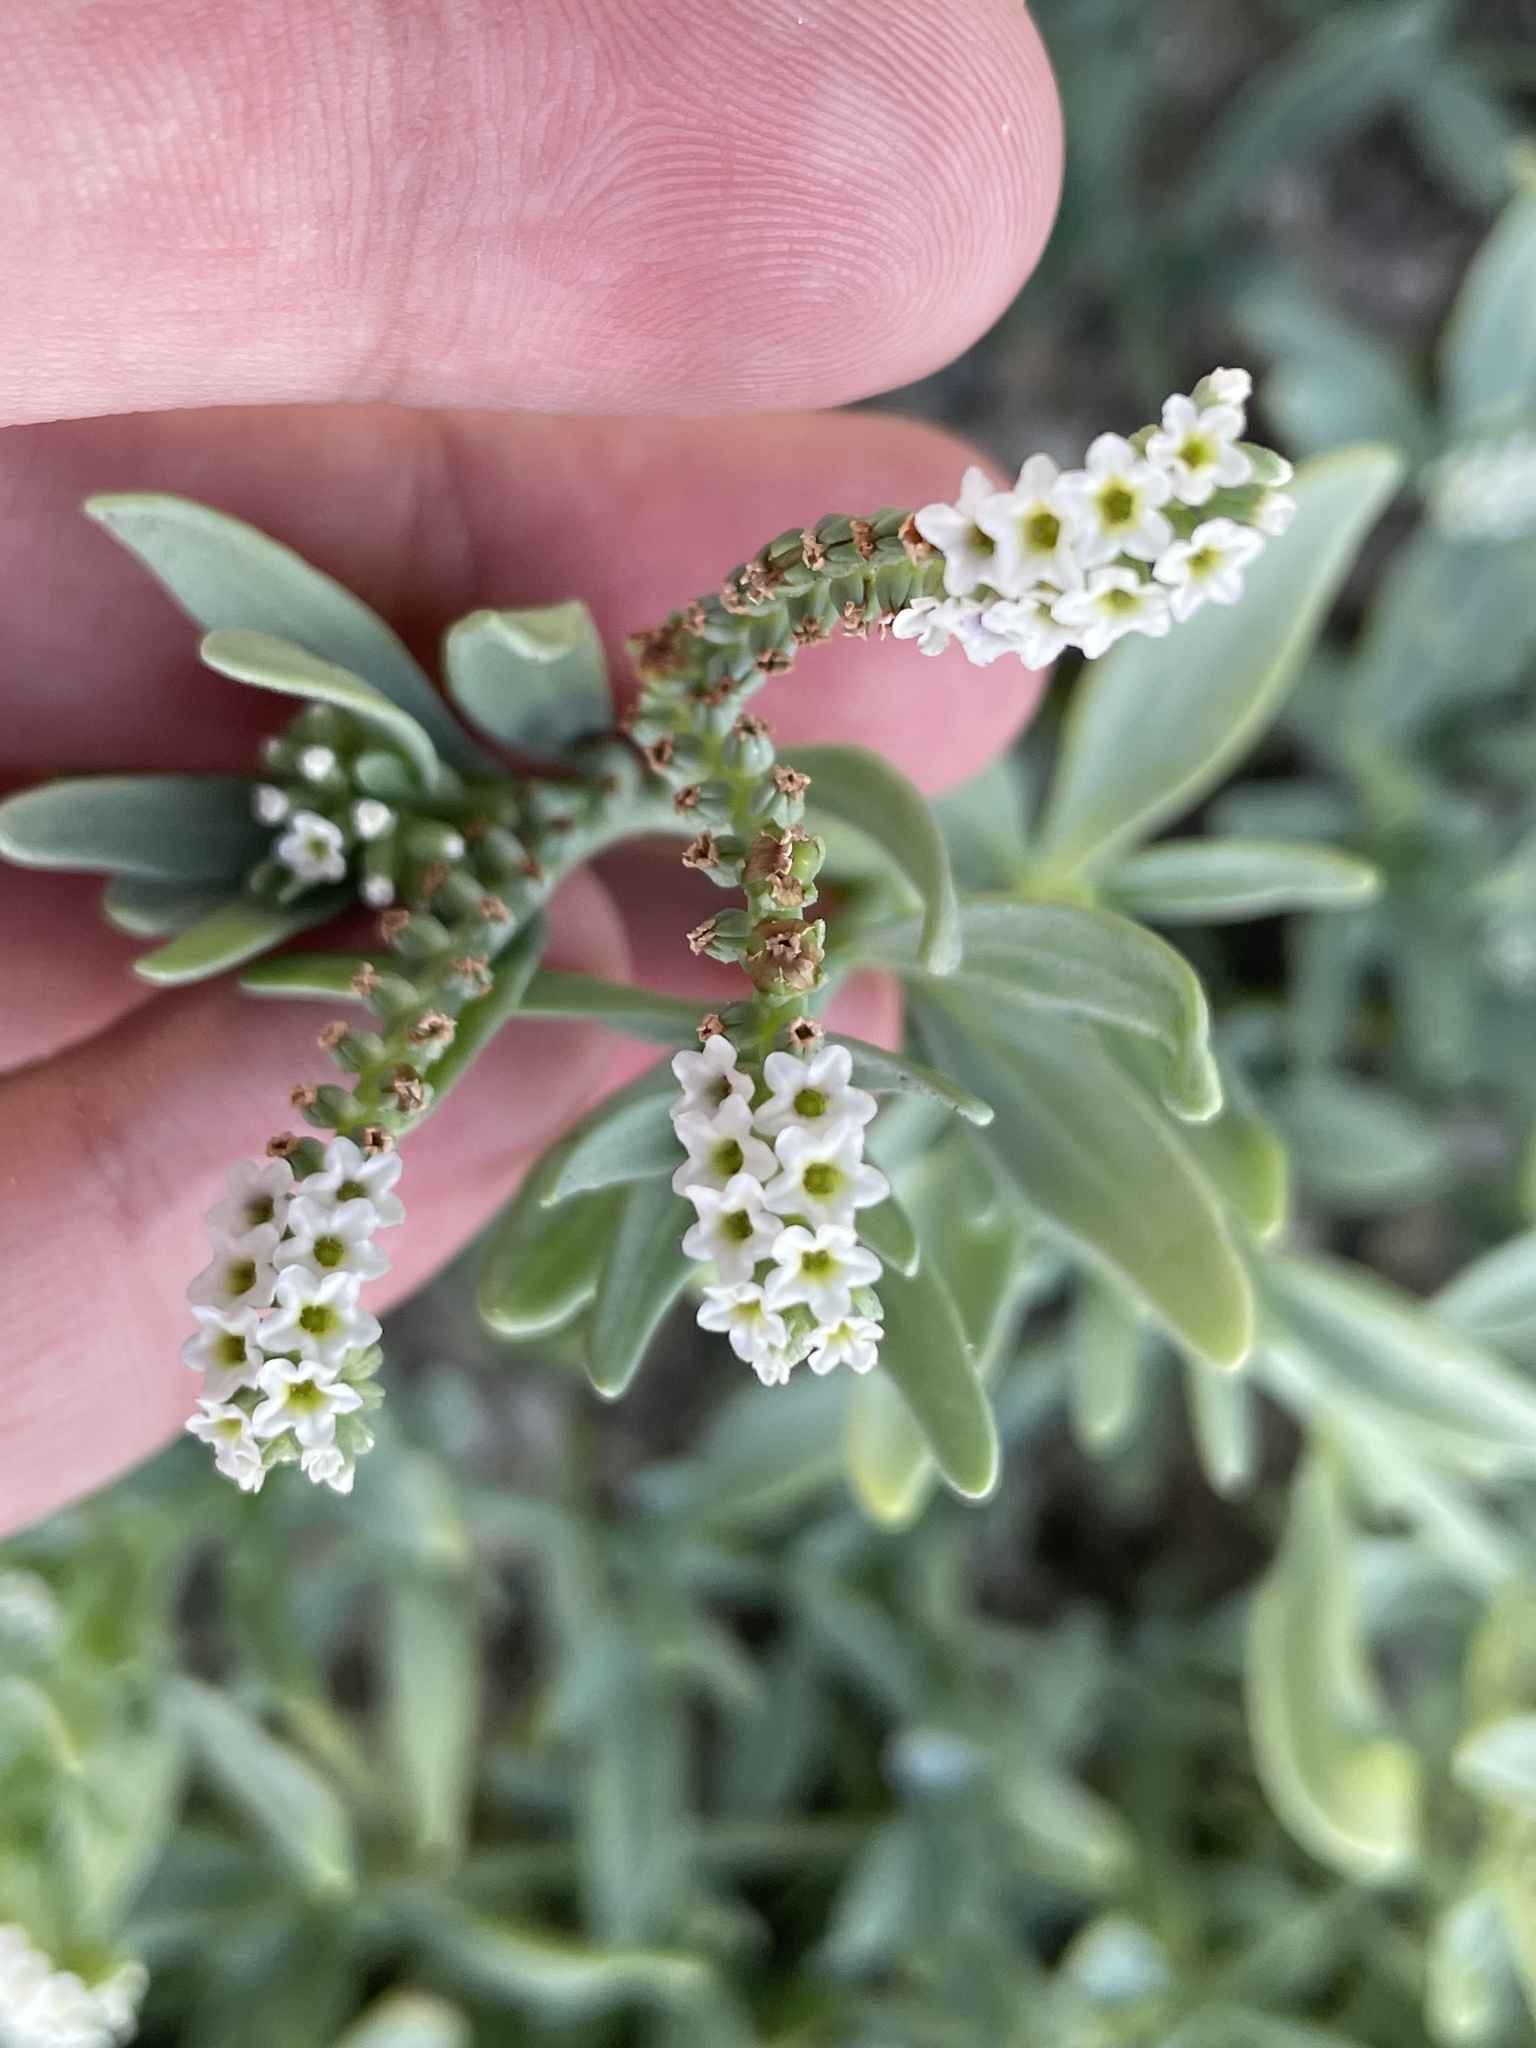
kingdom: Plantae
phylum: Tracheophyta
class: Magnoliopsida
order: Boraginales
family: Heliotropiaceae
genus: Heliotropium
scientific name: Heliotropium curassavicum
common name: Seaside heliotrope
